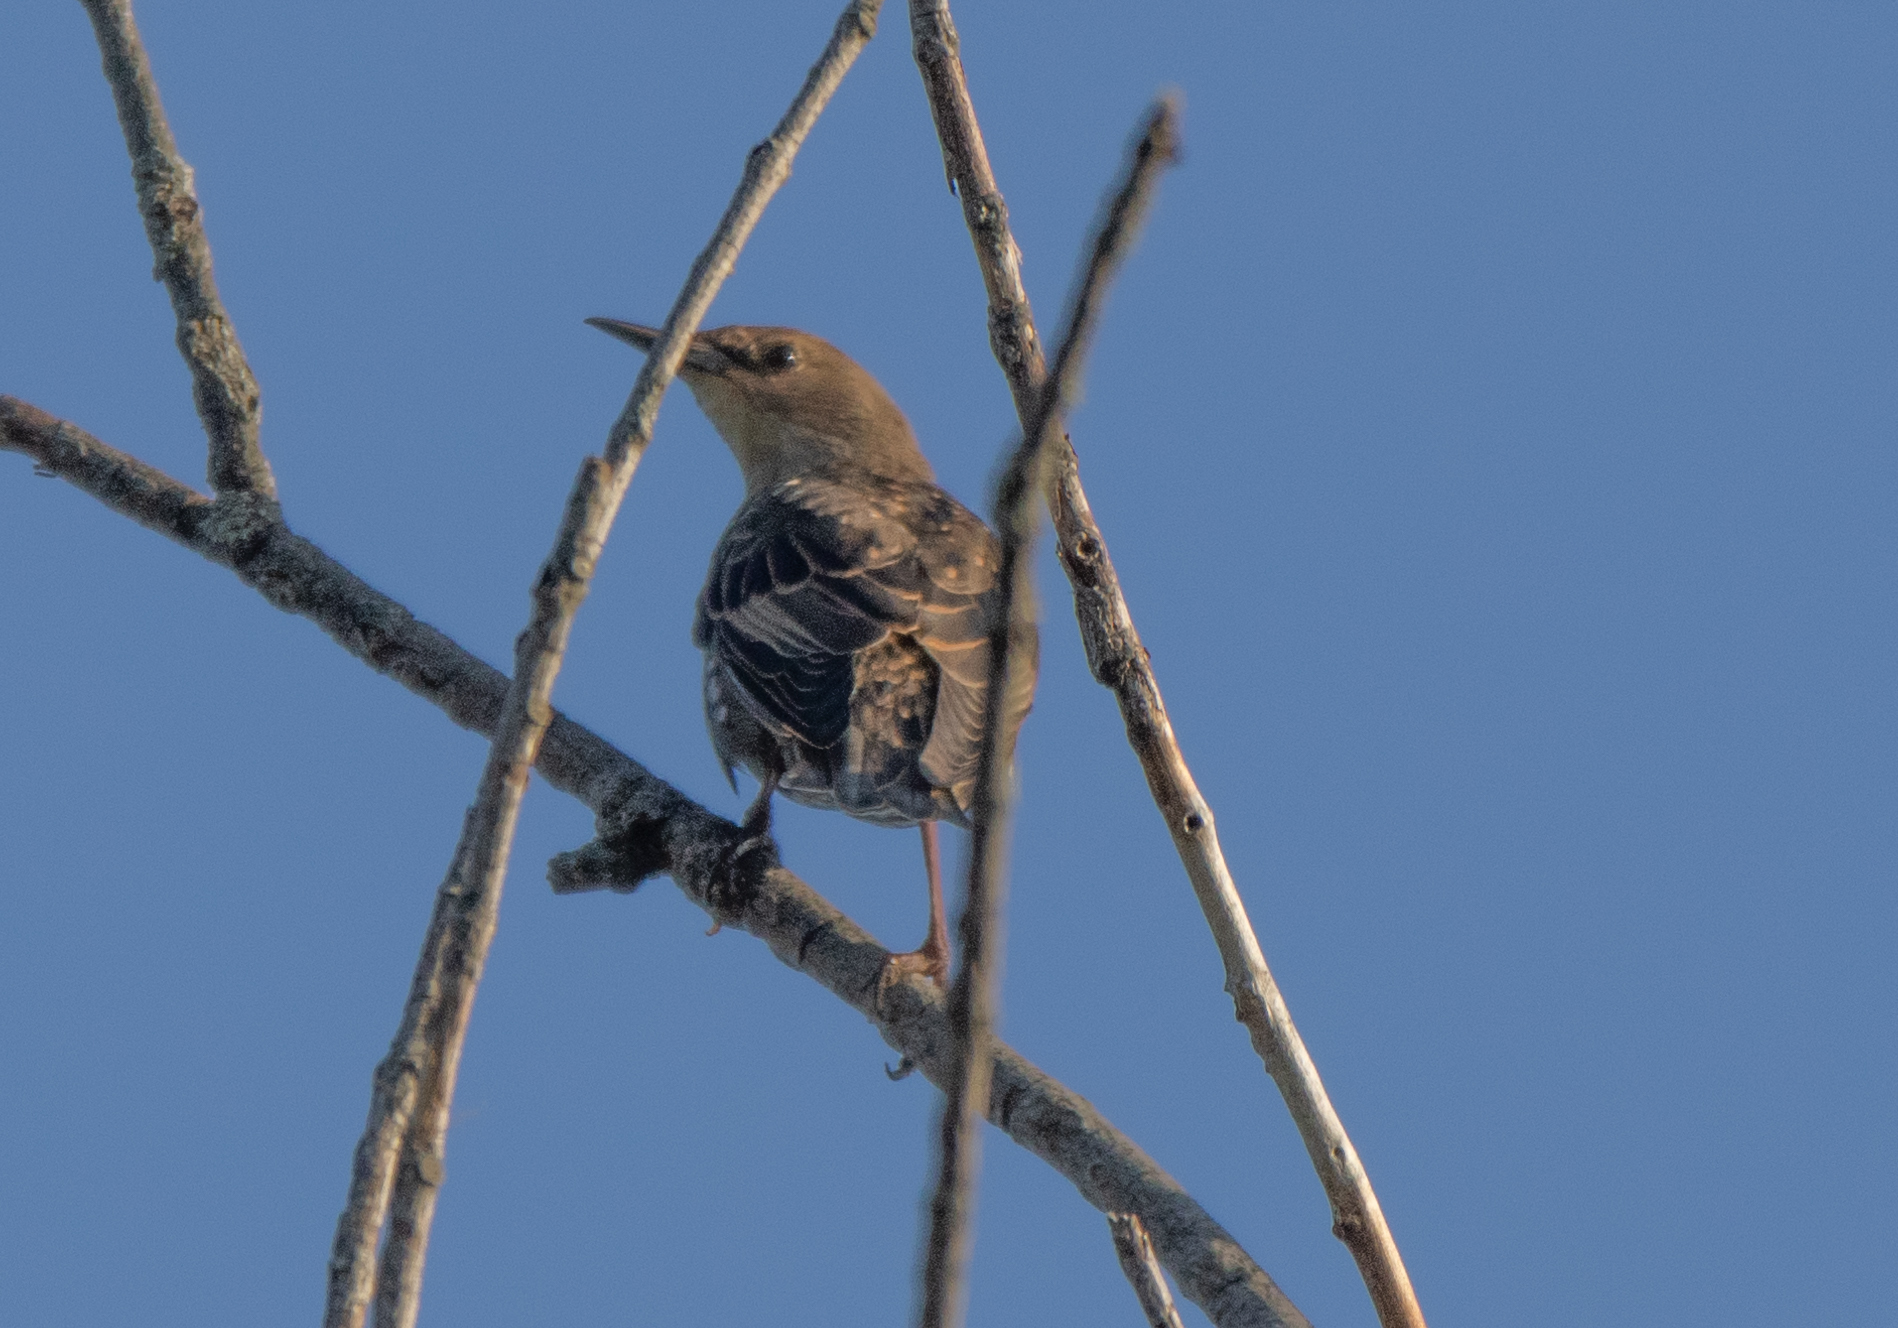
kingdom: Animalia
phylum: Chordata
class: Aves
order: Passeriformes
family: Sturnidae
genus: Sturnus
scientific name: Sturnus vulgaris
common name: Common starling
